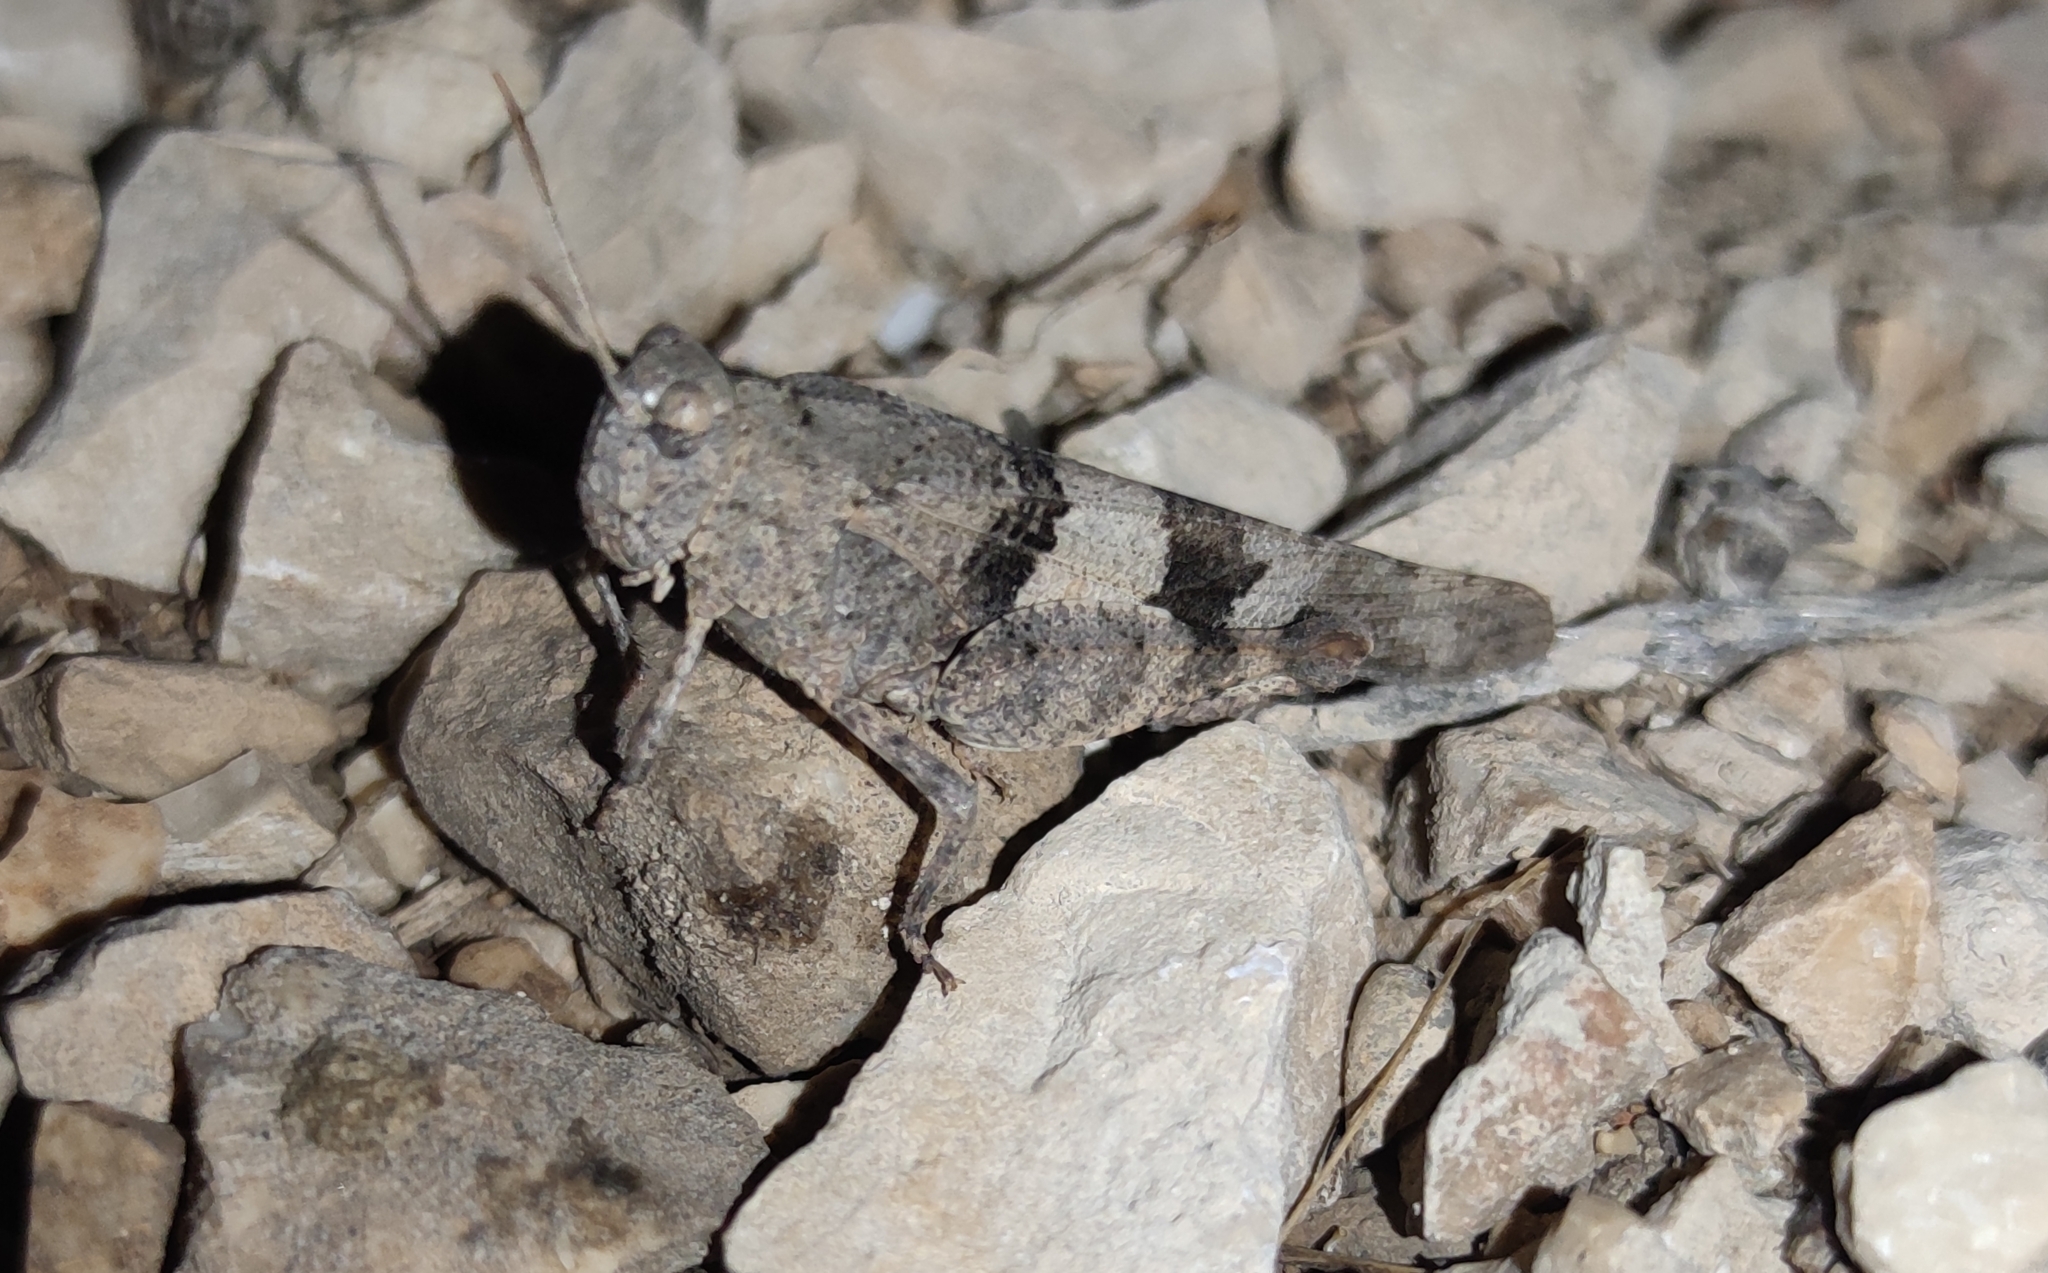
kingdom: Animalia
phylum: Arthropoda
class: Insecta
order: Orthoptera
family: Acrididae
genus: Oedipoda
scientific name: Oedipoda caerulescens
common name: Blue-winged grasshopper
